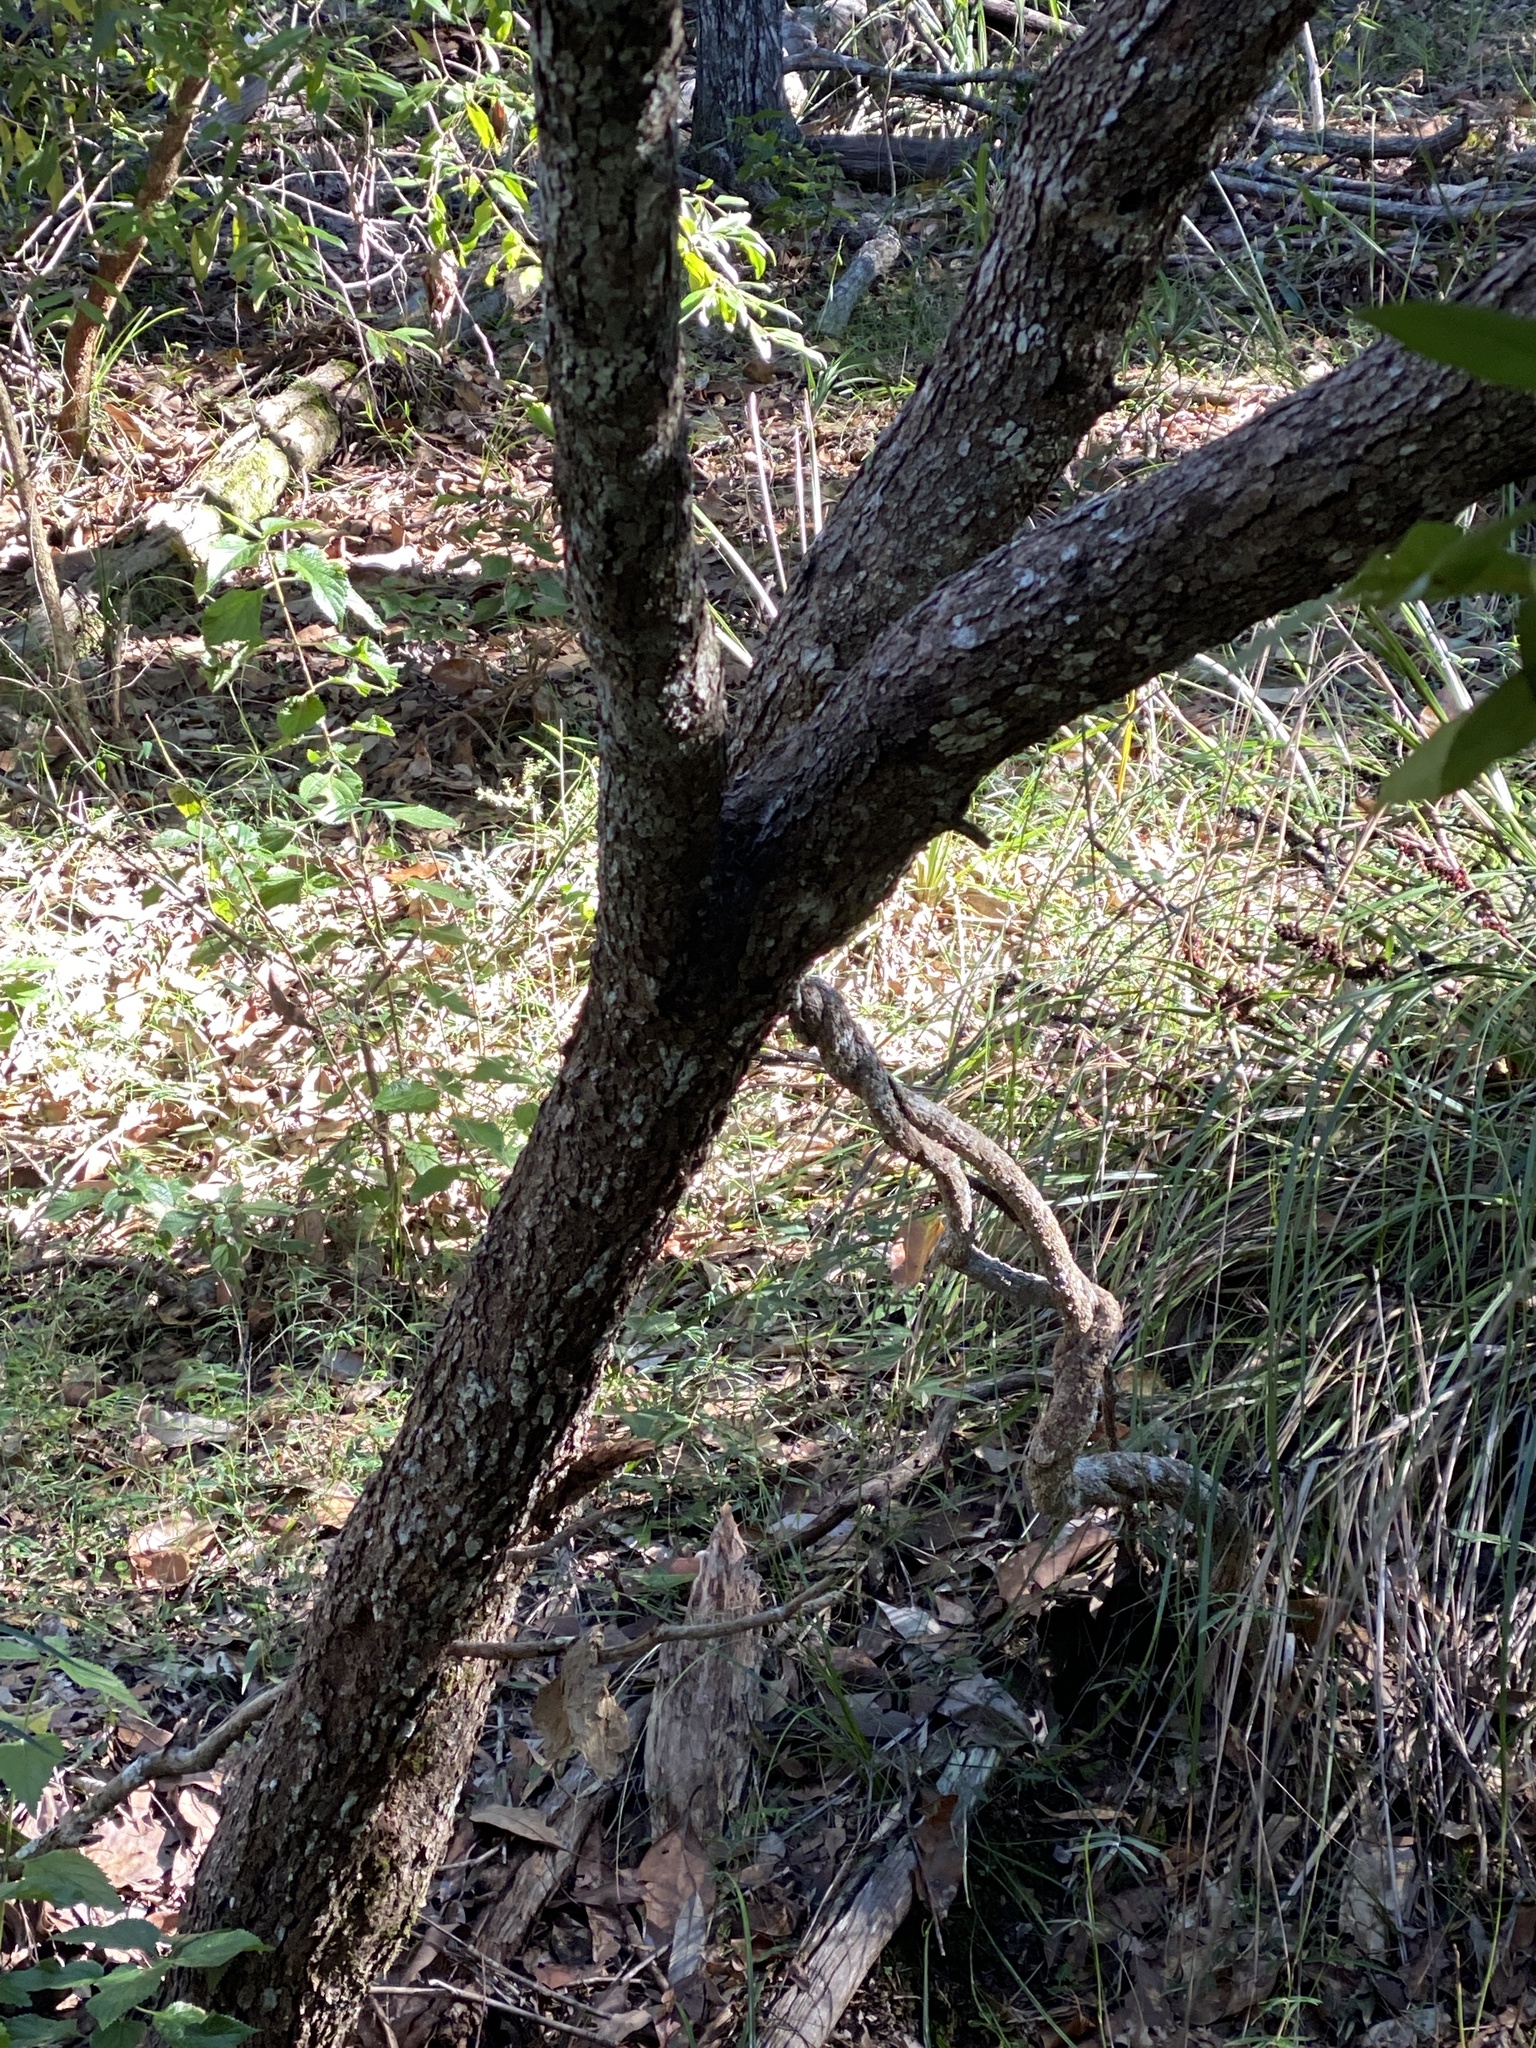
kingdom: Plantae
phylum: Tracheophyta
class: Magnoliopsida
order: Apiales
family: Pittosporaceae
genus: Bursaria
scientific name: Bursaria spinosa
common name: Australian blackthorn
